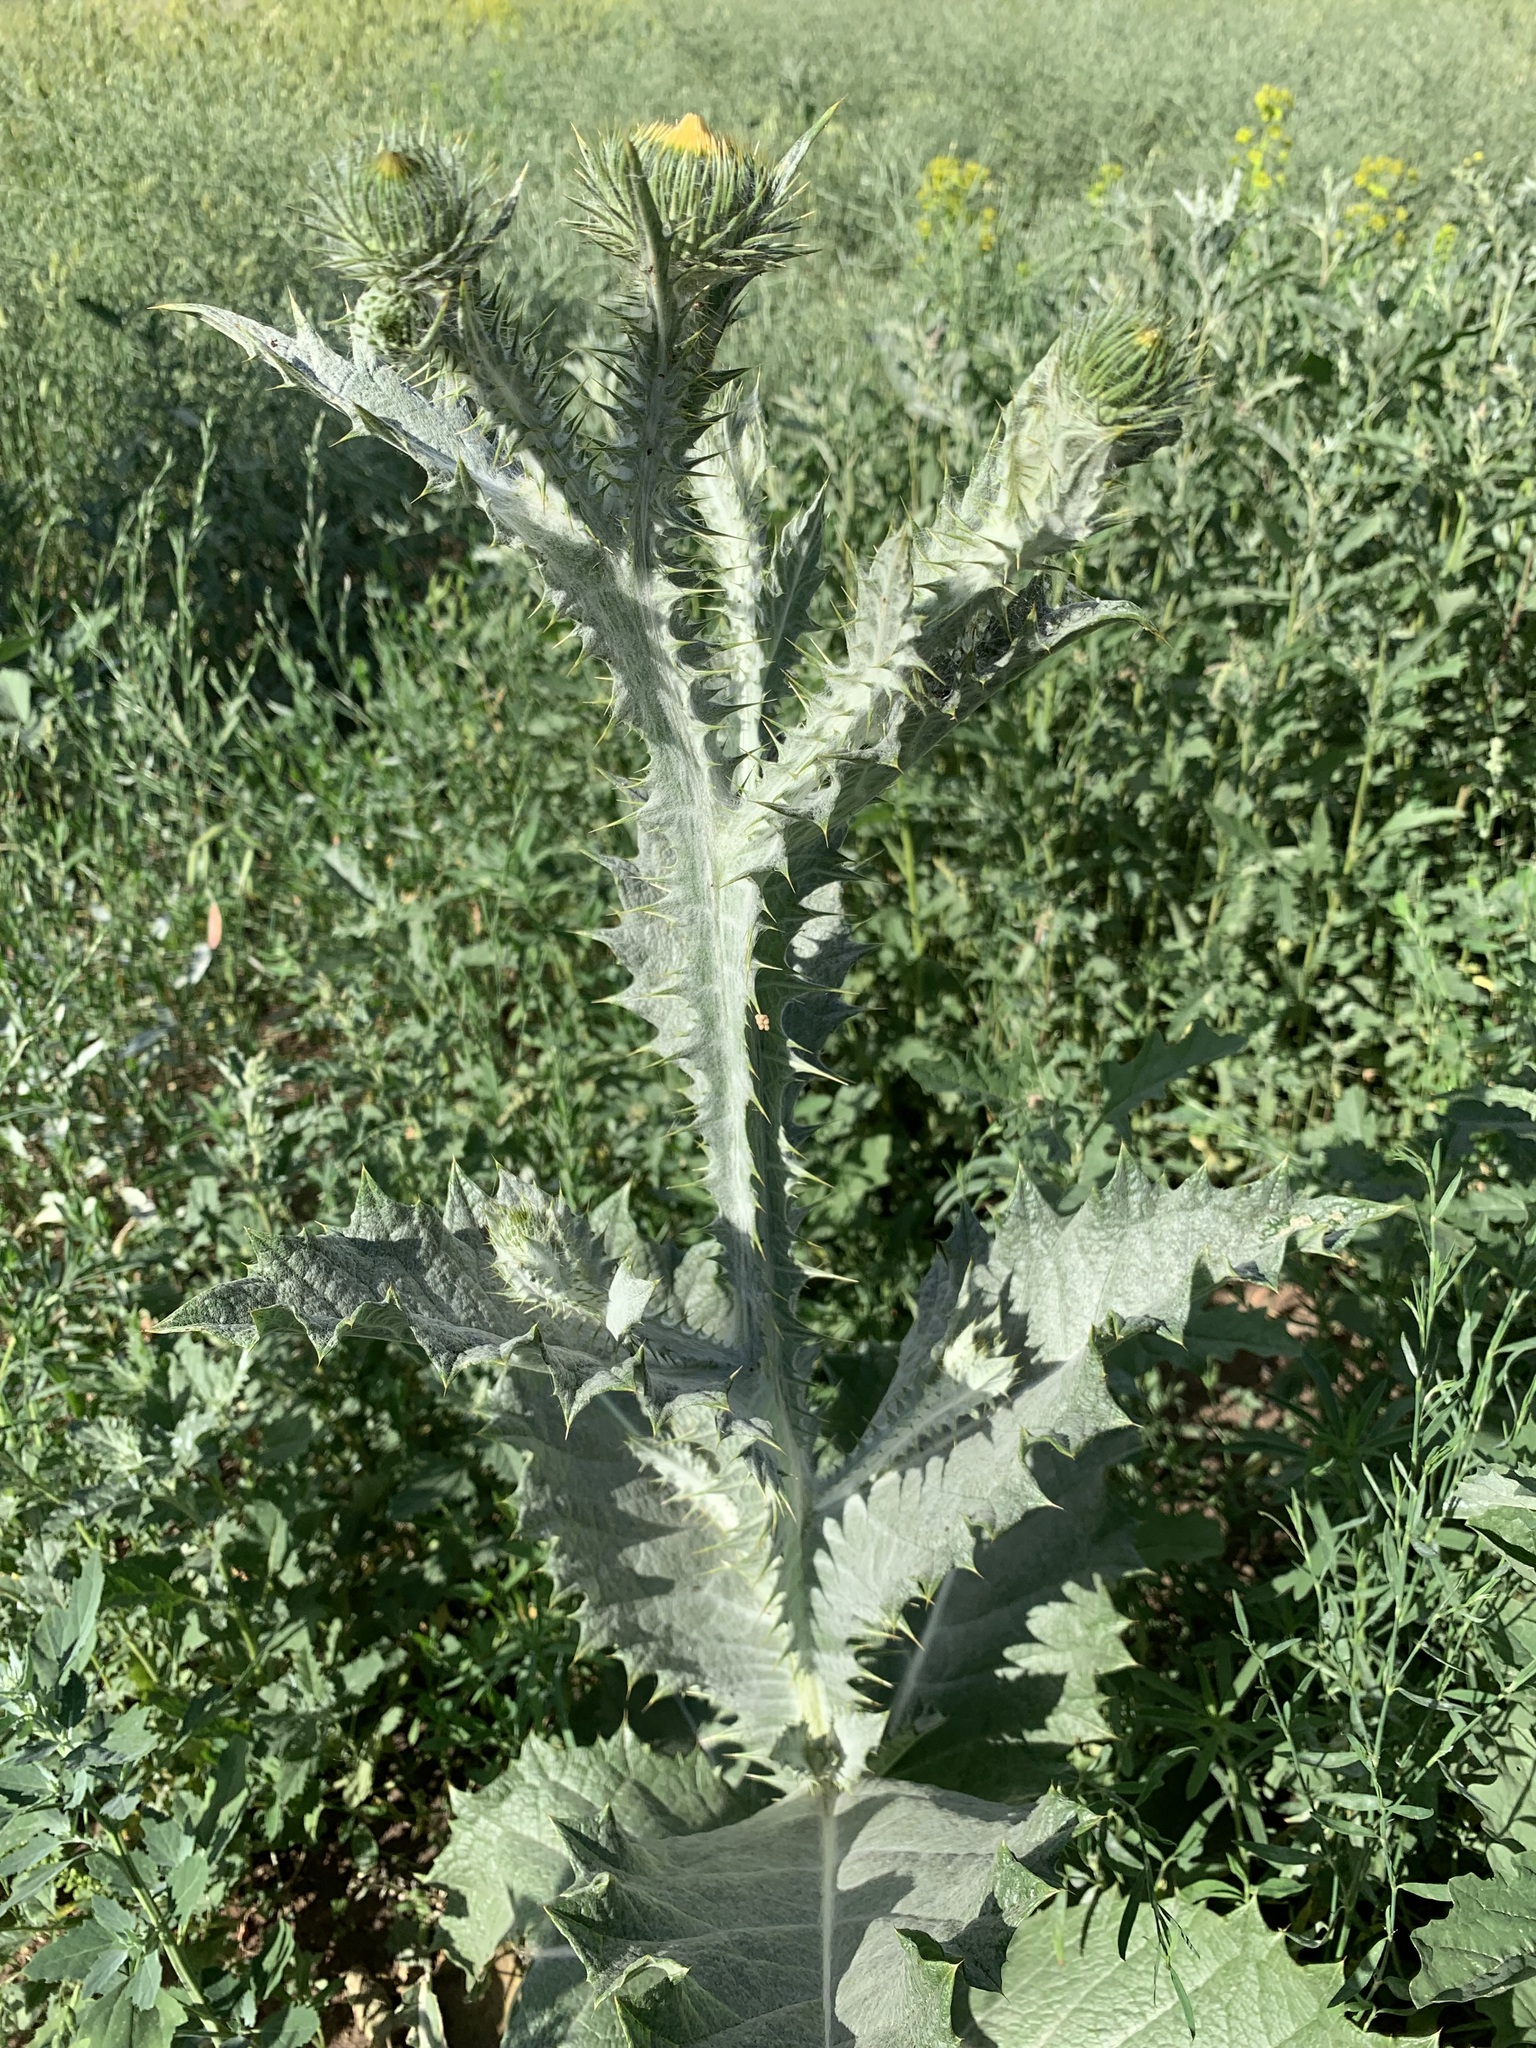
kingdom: Plantae
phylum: Tracheophyta
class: Magnoliopsida
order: Asterales
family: Asteraceae
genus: Onopordum
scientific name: Onopordum acanthium
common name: Scotch thistle
